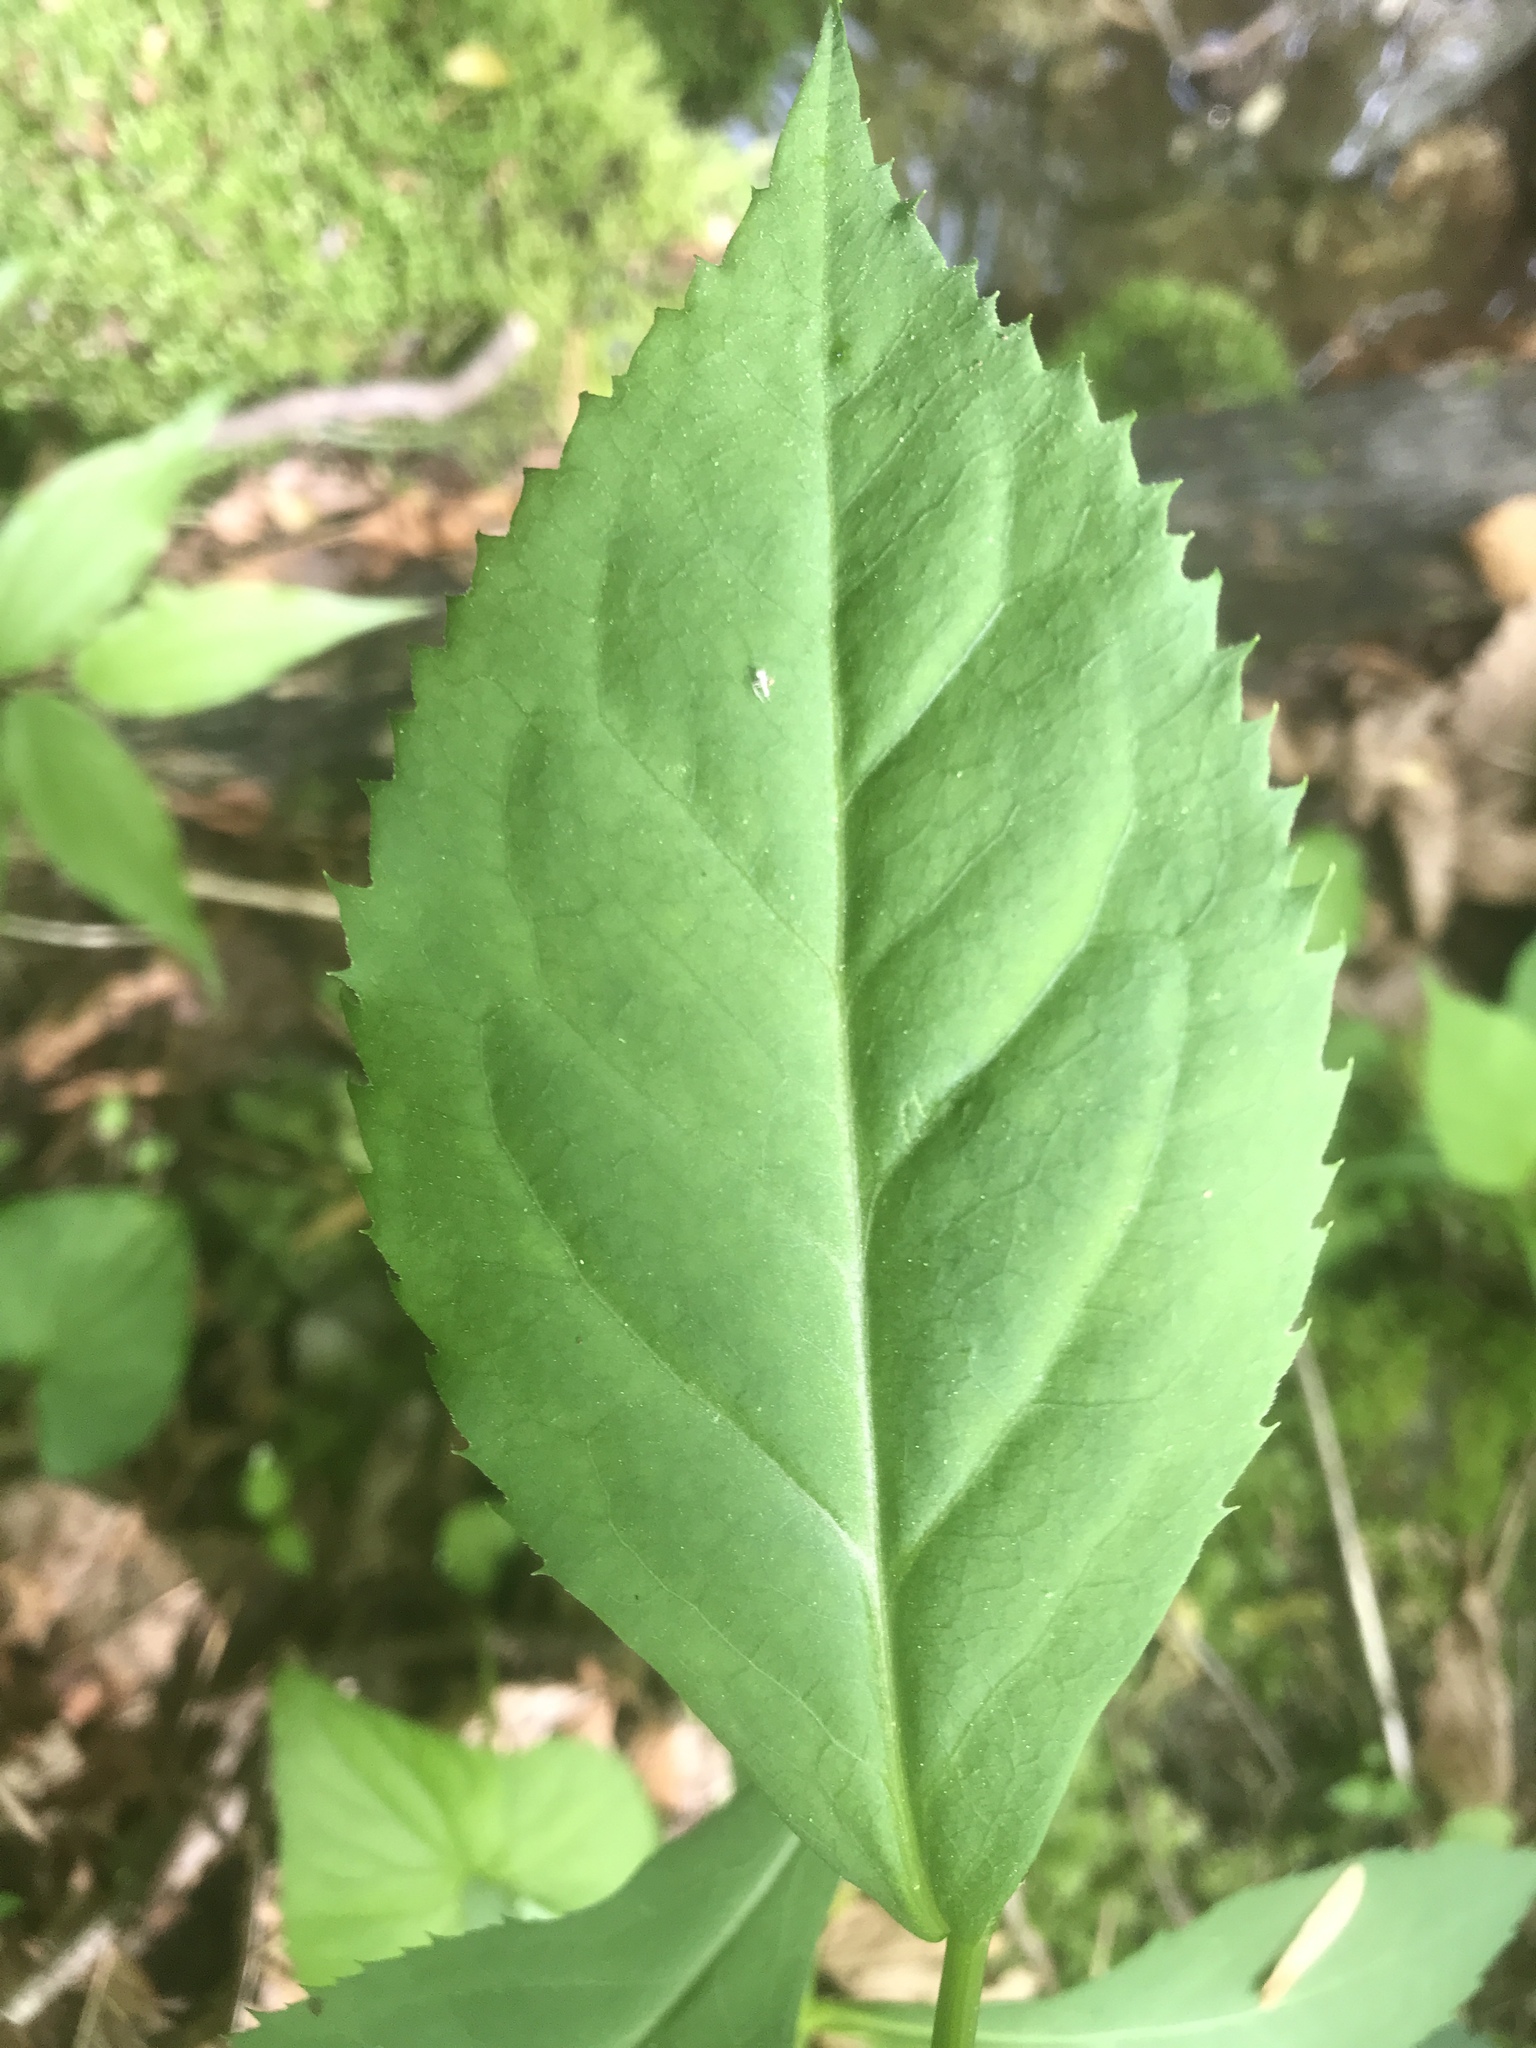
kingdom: Plantae
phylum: Tracheophyta
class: Magnoliopsida
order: Asterales
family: Asteraceae
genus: Solidago
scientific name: Solidago flexicaulis
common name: Zig-zag goldenrod
